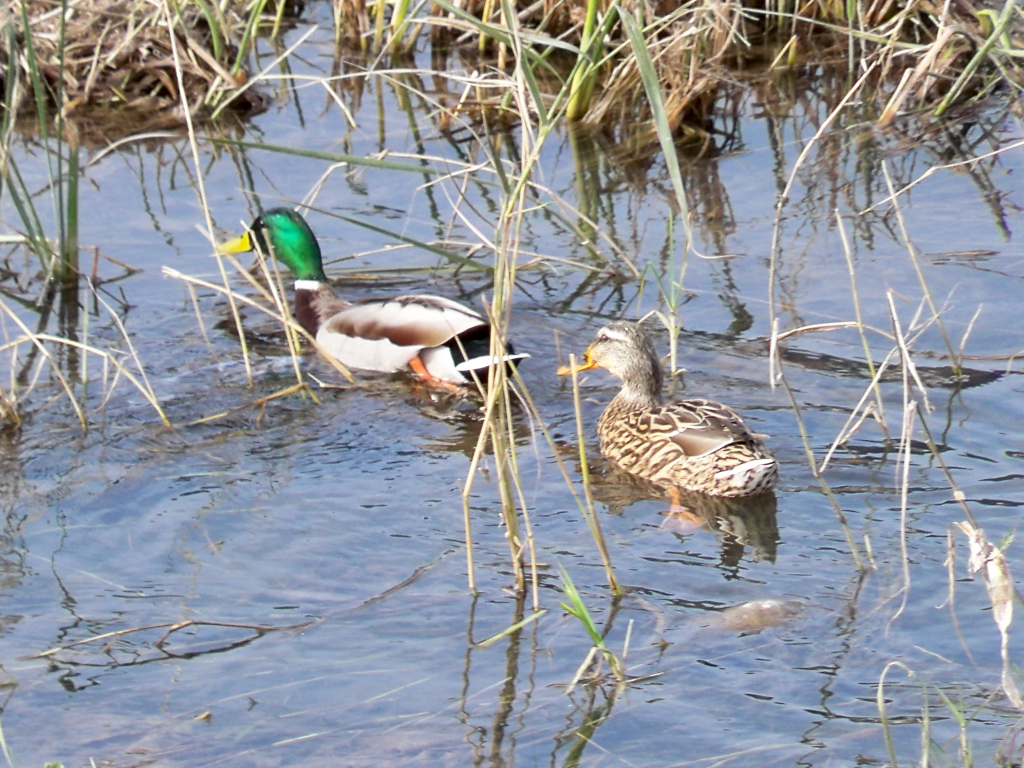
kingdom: Animalia
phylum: Chordata
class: Aves
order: Anseriformes
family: Anatidae
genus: Anas
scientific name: Anas platyrhynchos
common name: Mallard
